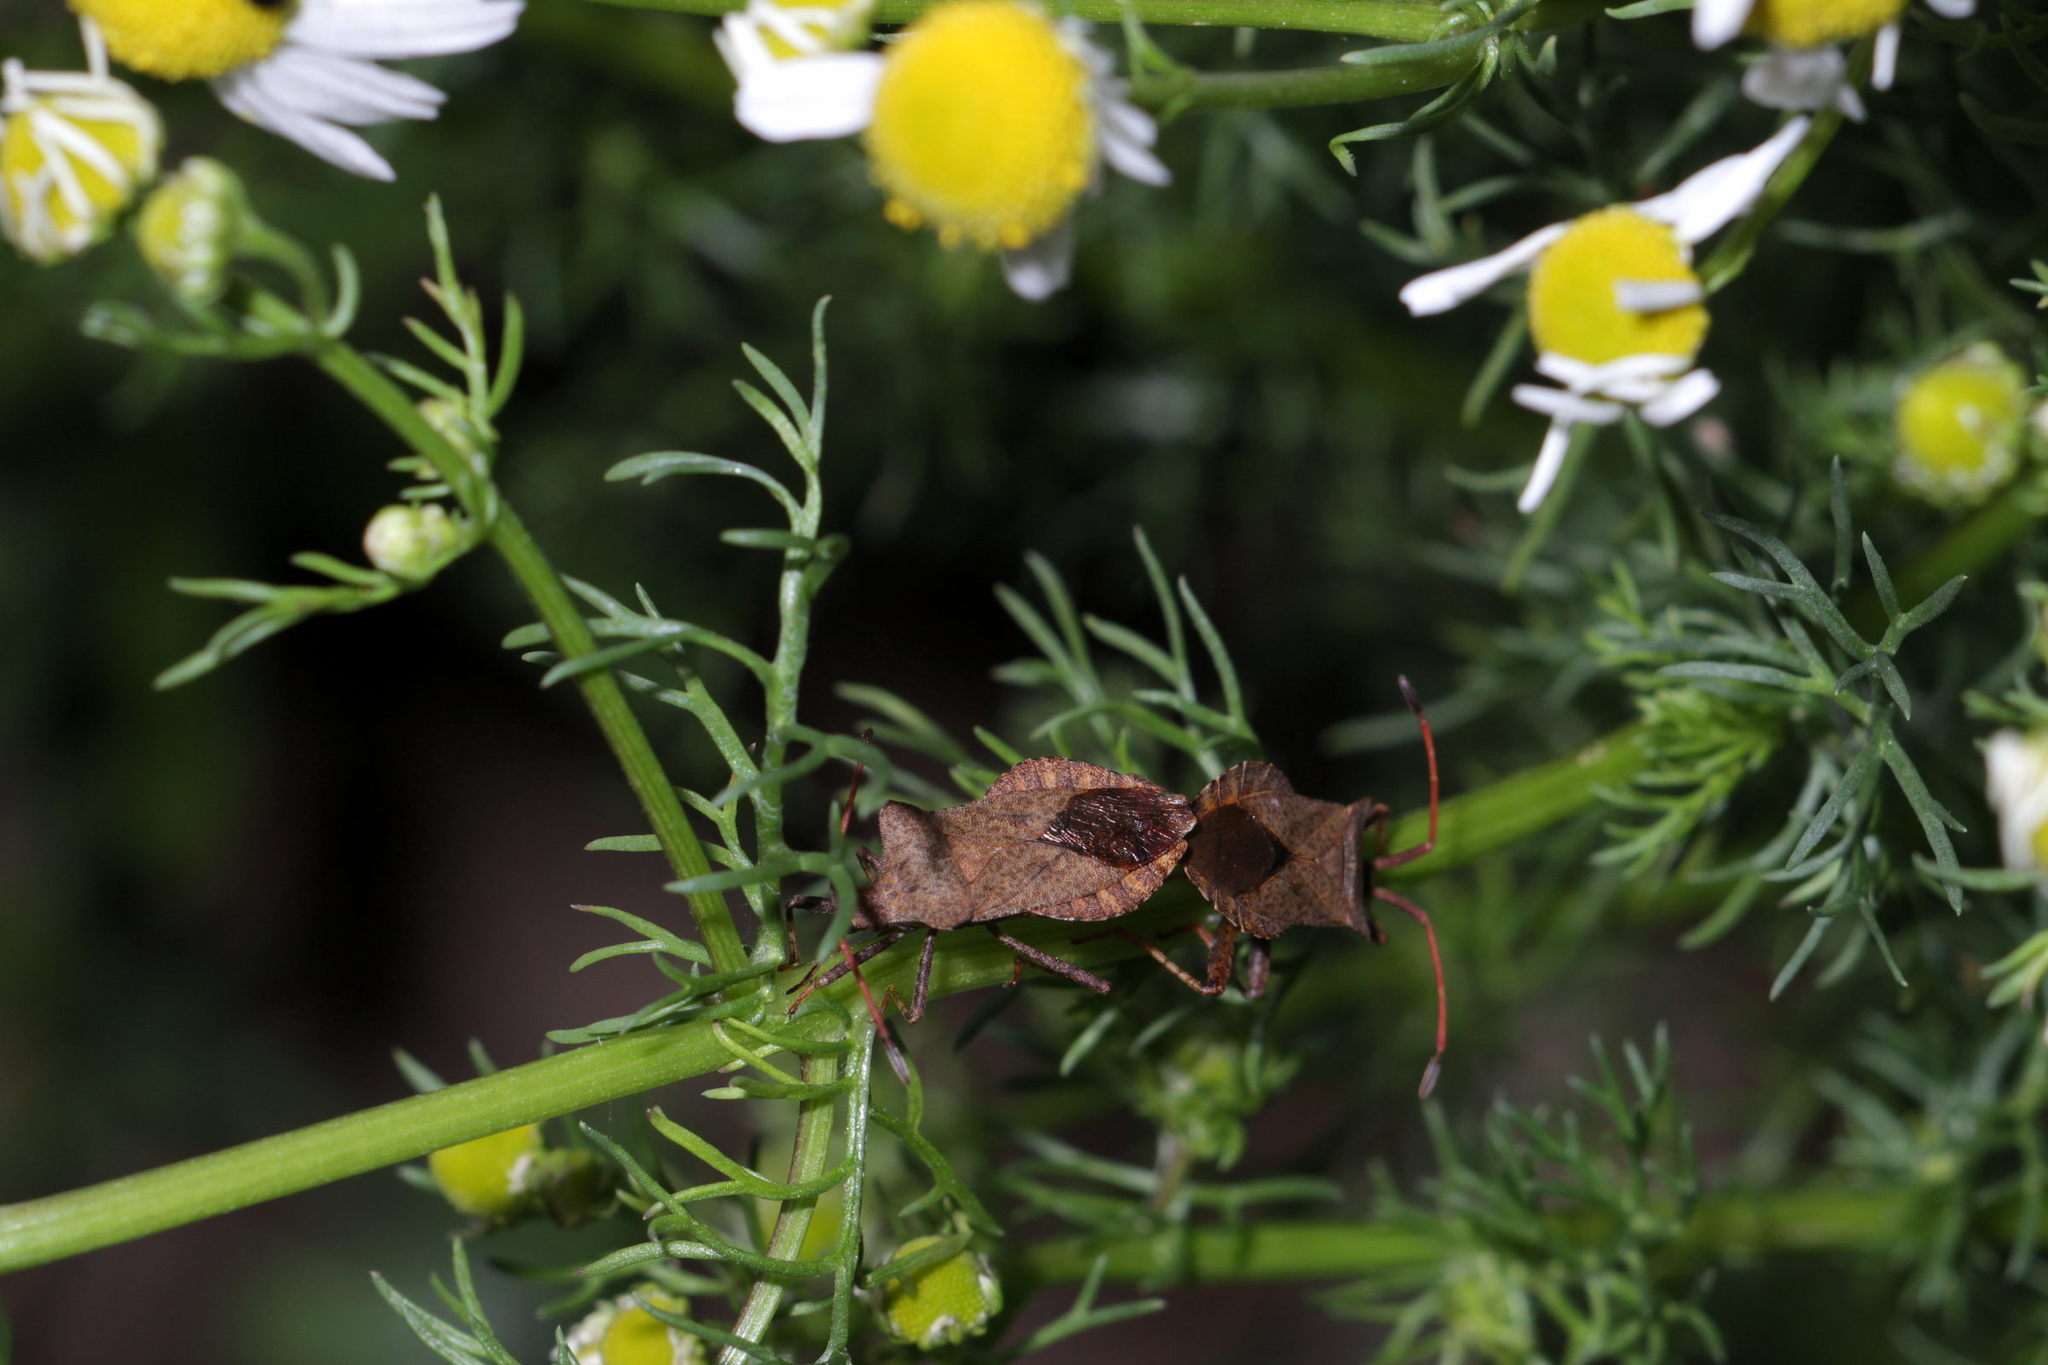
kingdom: Animalia
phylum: Arthropoda
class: Insecta
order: Hemiptera
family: Coreidae
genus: Coreus
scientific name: Coreus marginatus
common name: Dock bug
